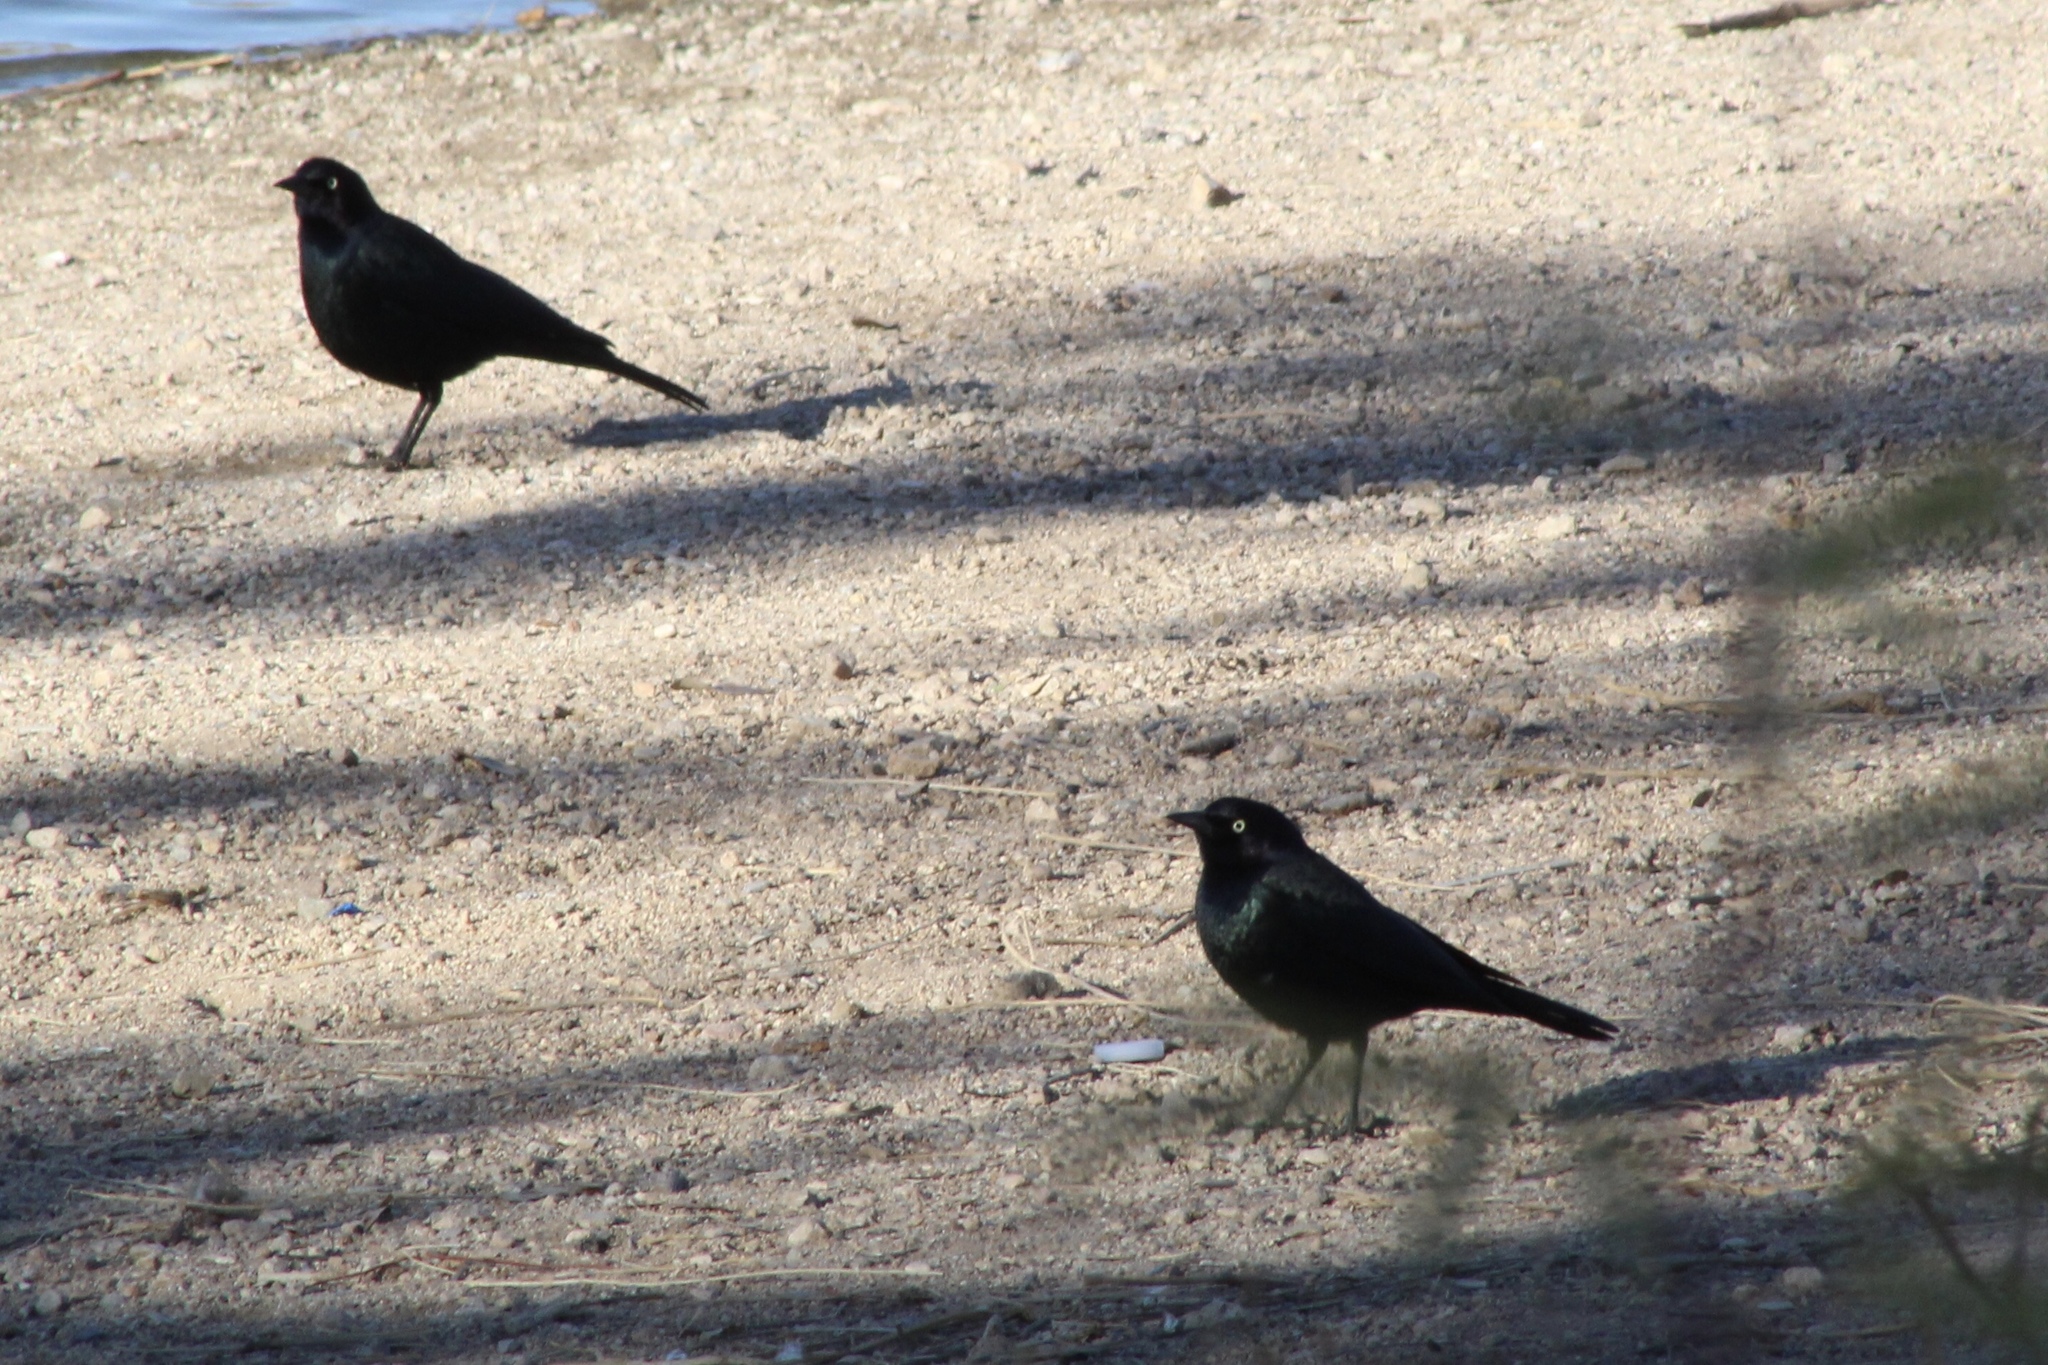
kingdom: Animalia
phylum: Chordata
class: Aves
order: Passeriformes
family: Icteridae
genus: Euphagus
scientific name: Euphagus cyanocephalus
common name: Brewer's blackbird
